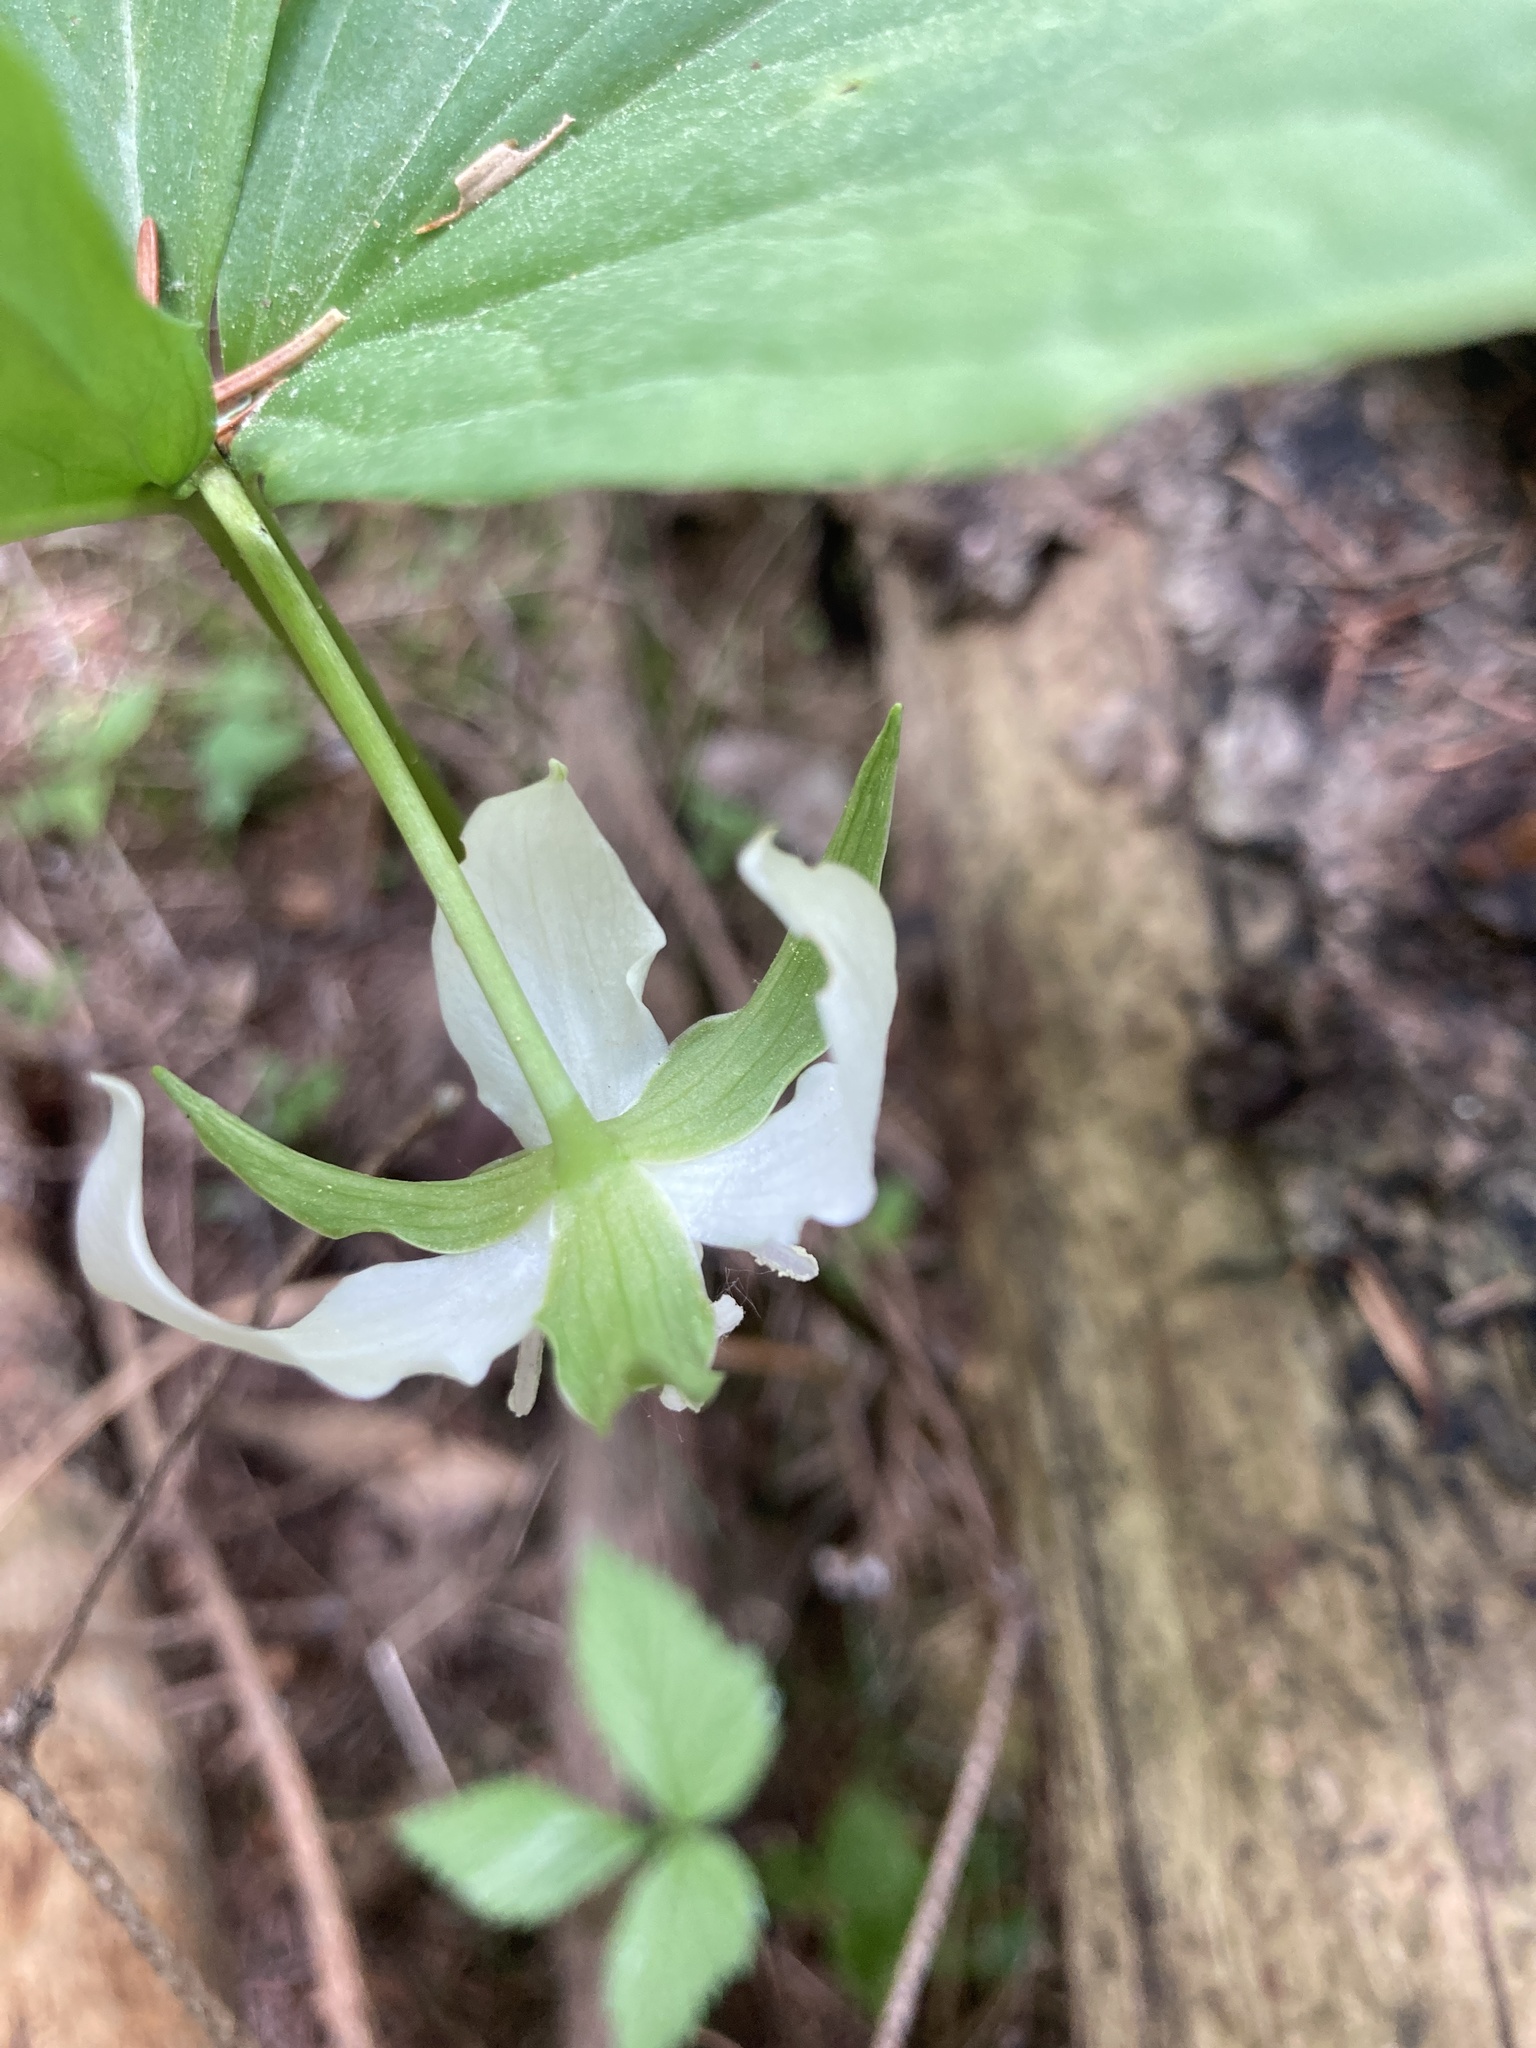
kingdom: Plantae
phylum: Tracheophyta
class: Liliopsida
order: Liliales
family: Melanthiaceae
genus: Trillium
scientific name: Trillium cernuum
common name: Nodding trillium
